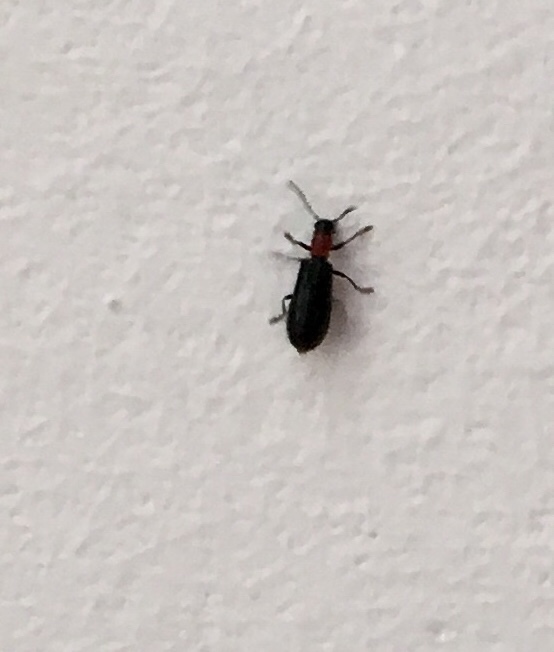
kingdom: Animalia
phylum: Arthropoda
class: Insecta
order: Coleoptera
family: Cleridae
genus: Tillus
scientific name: Tillus elongatus
